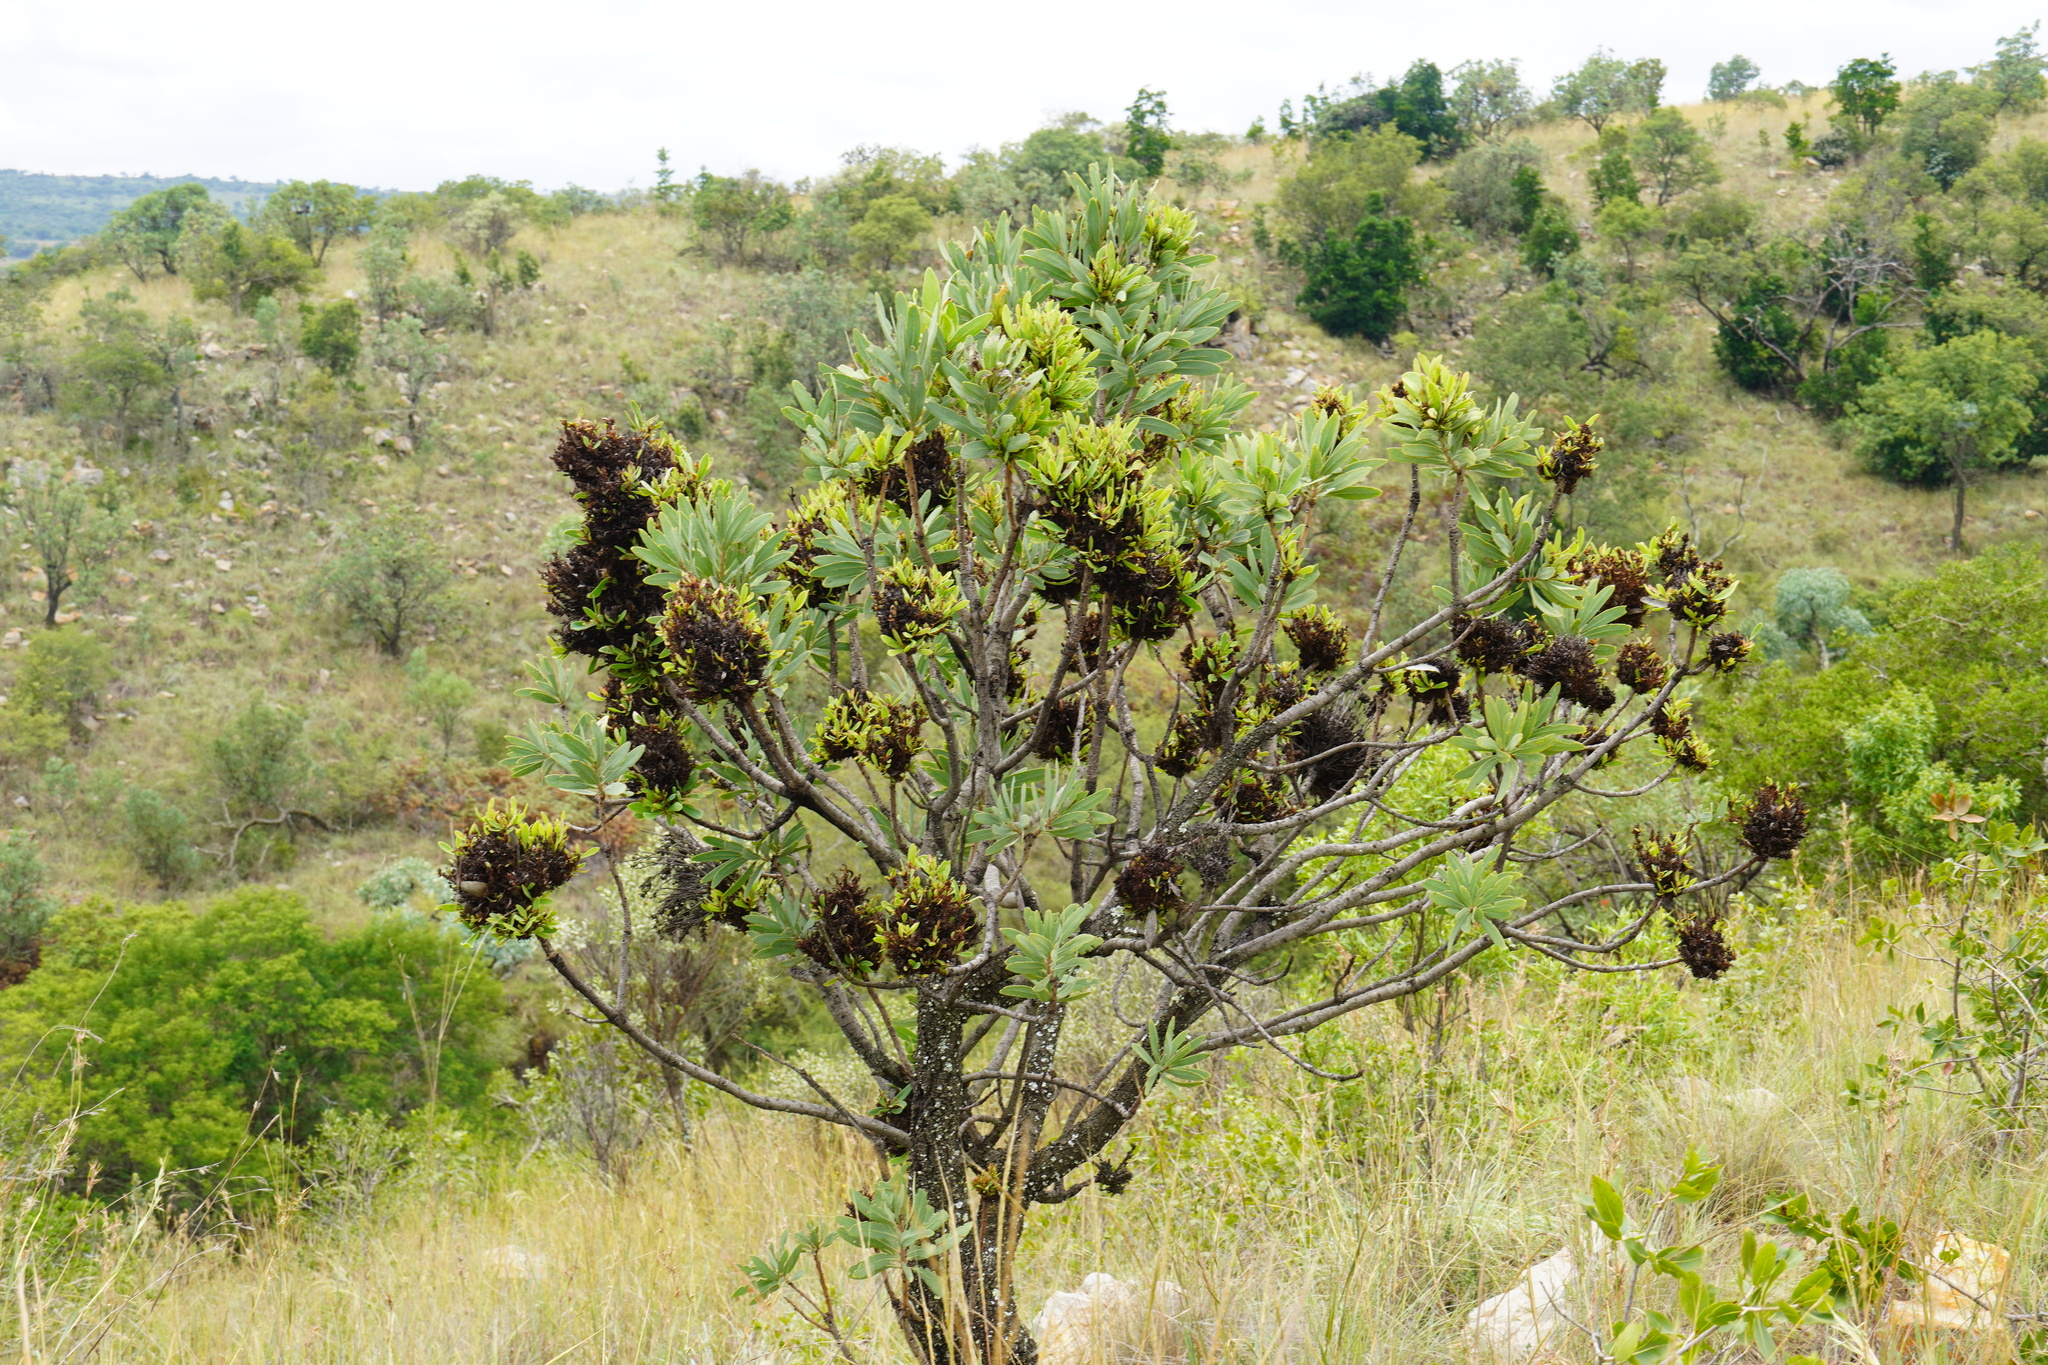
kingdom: Bacteria
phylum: Firmicutes
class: Bacilli
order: Acholeplasmatales
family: Acholeplasmataceae
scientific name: Acholeplasmataceae
